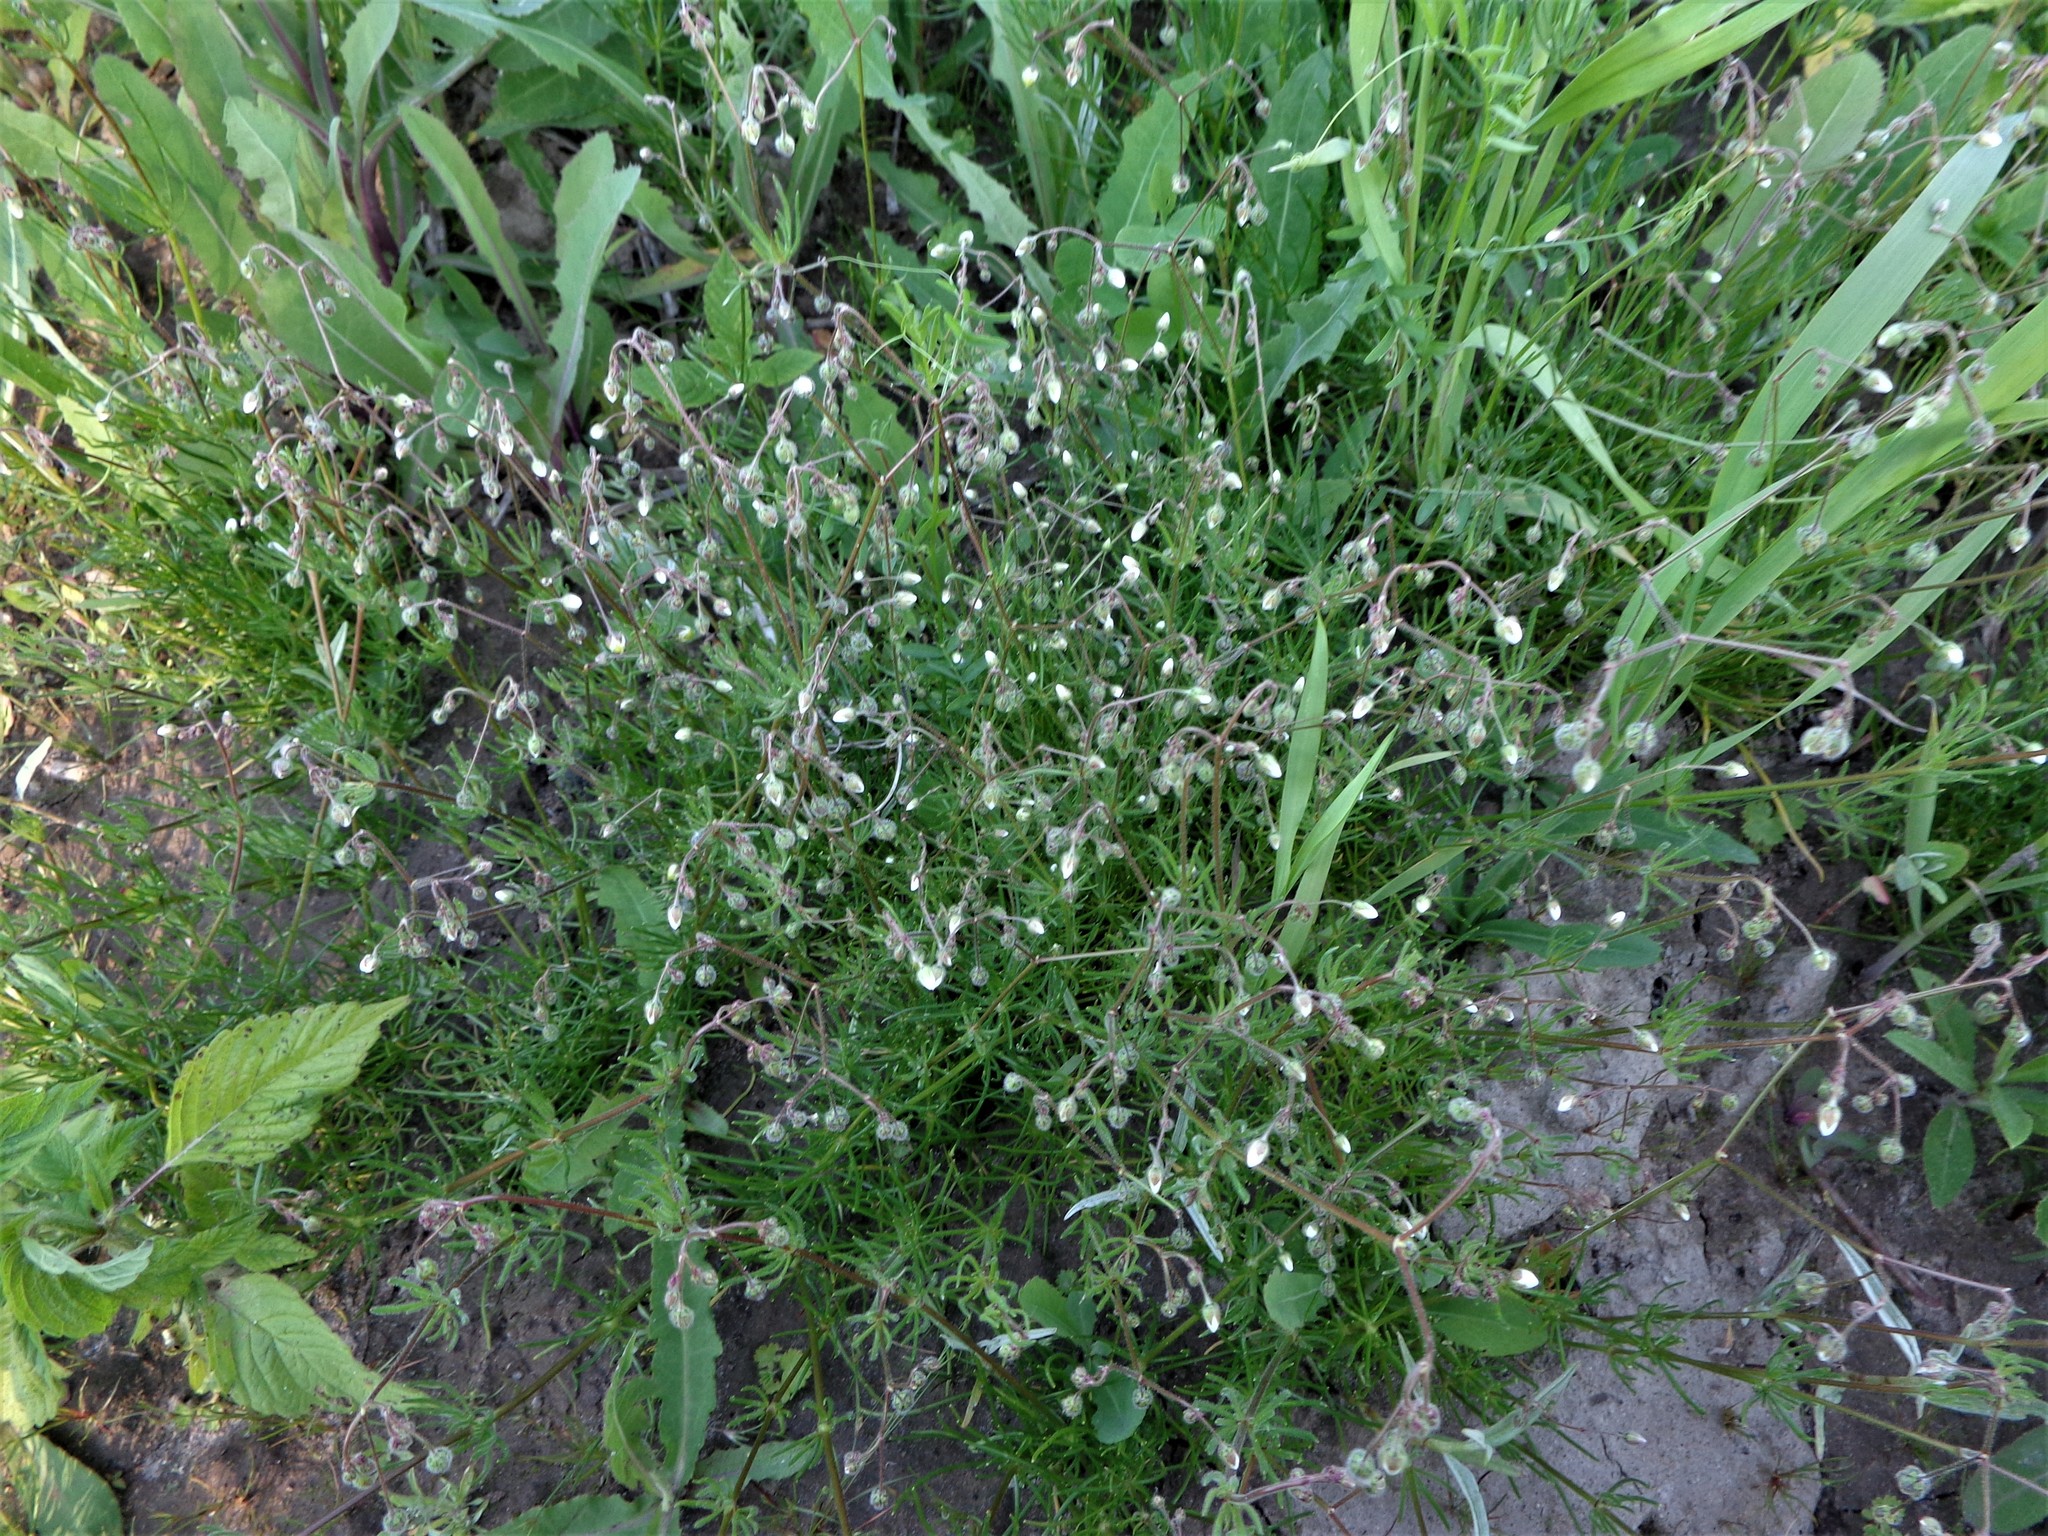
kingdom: Plantae
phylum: Tracheophyta
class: Magnoliopsida
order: Caryophyllales
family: Caryophyllaceae
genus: Spergula
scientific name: Spergula arvensis
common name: Corn spurrey
